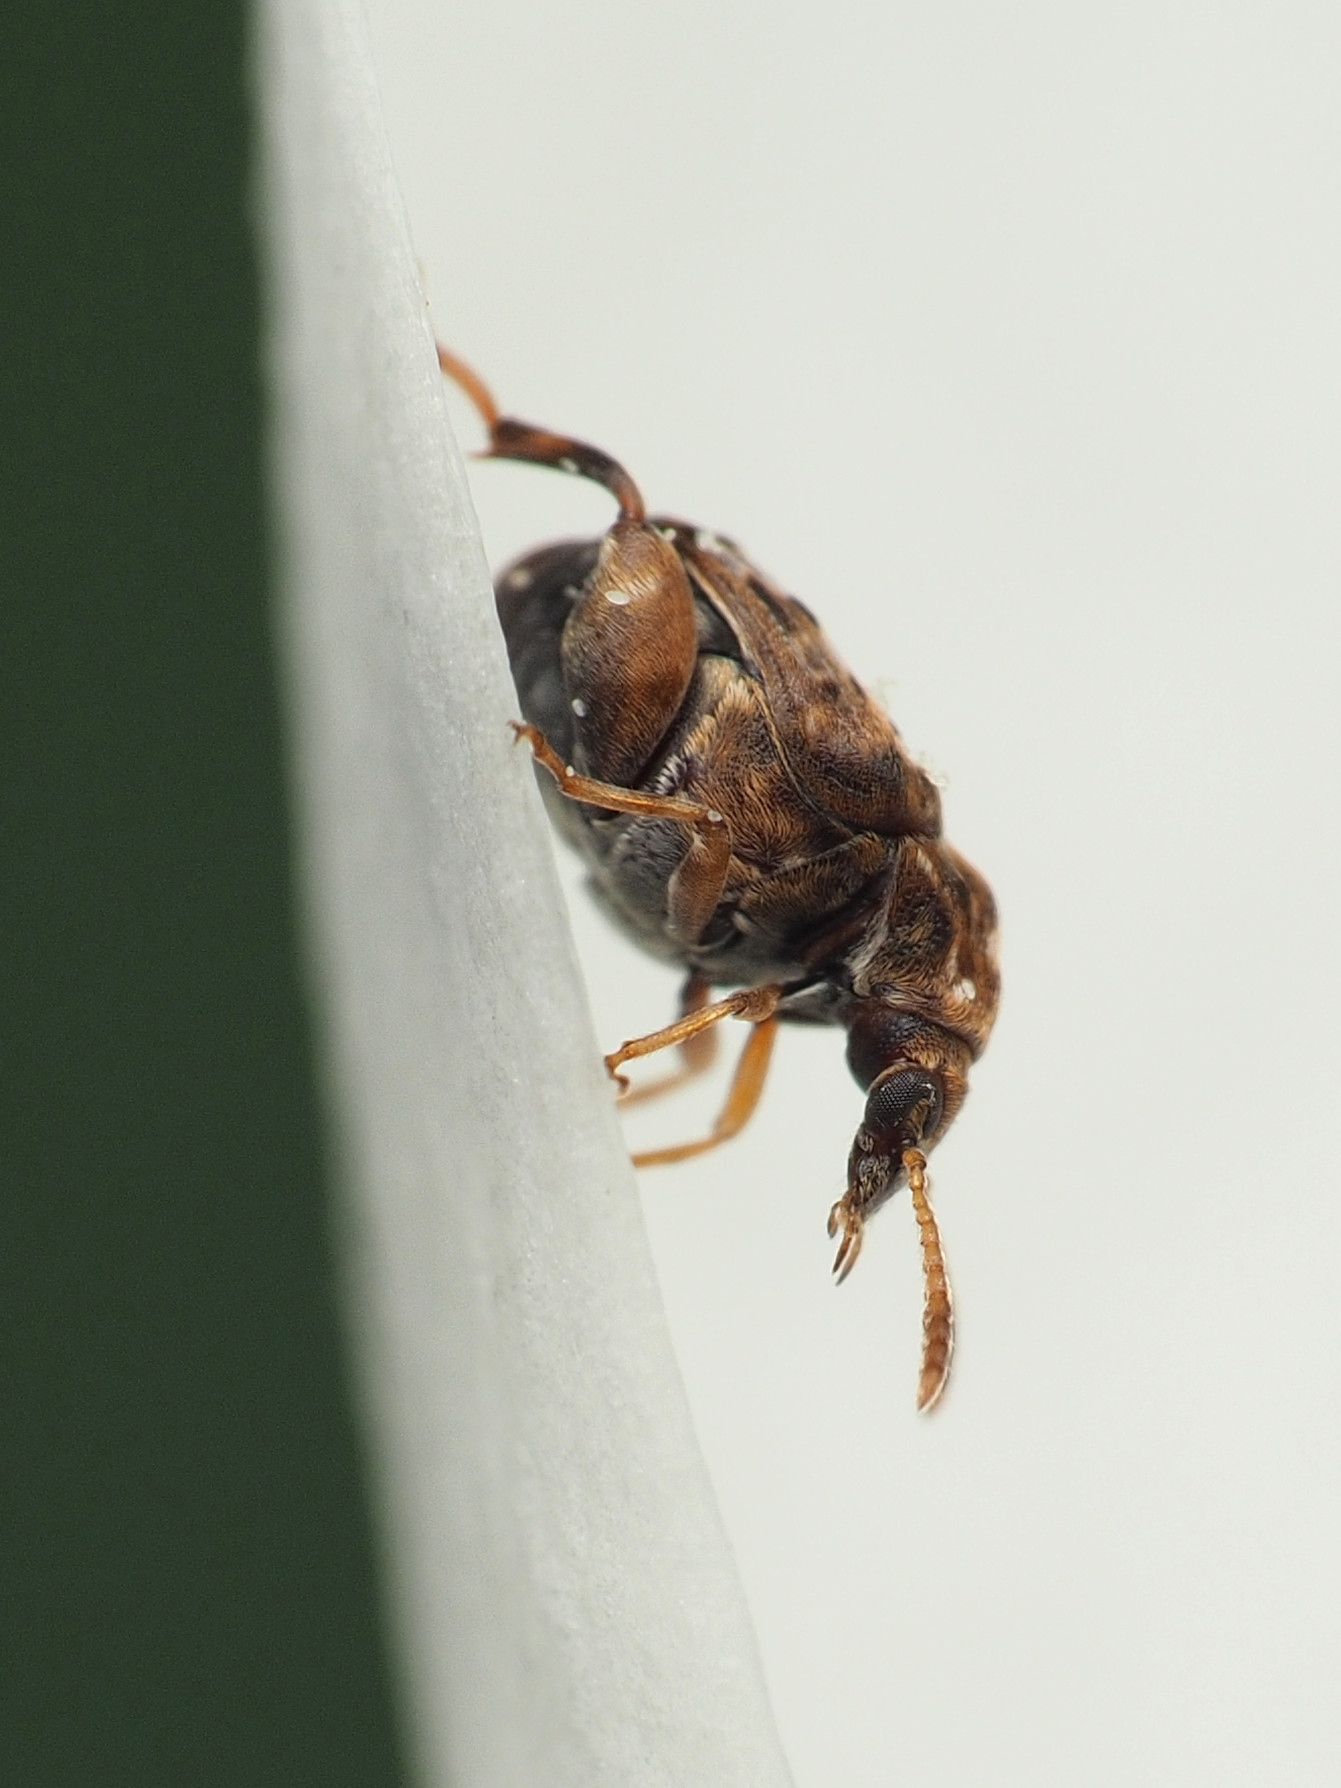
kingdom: Animalia
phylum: Arthropoda
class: Insecta
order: Coleoptera
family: Chrysomelidae
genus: Gibbobruchus
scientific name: Gibbobruchus mimus
